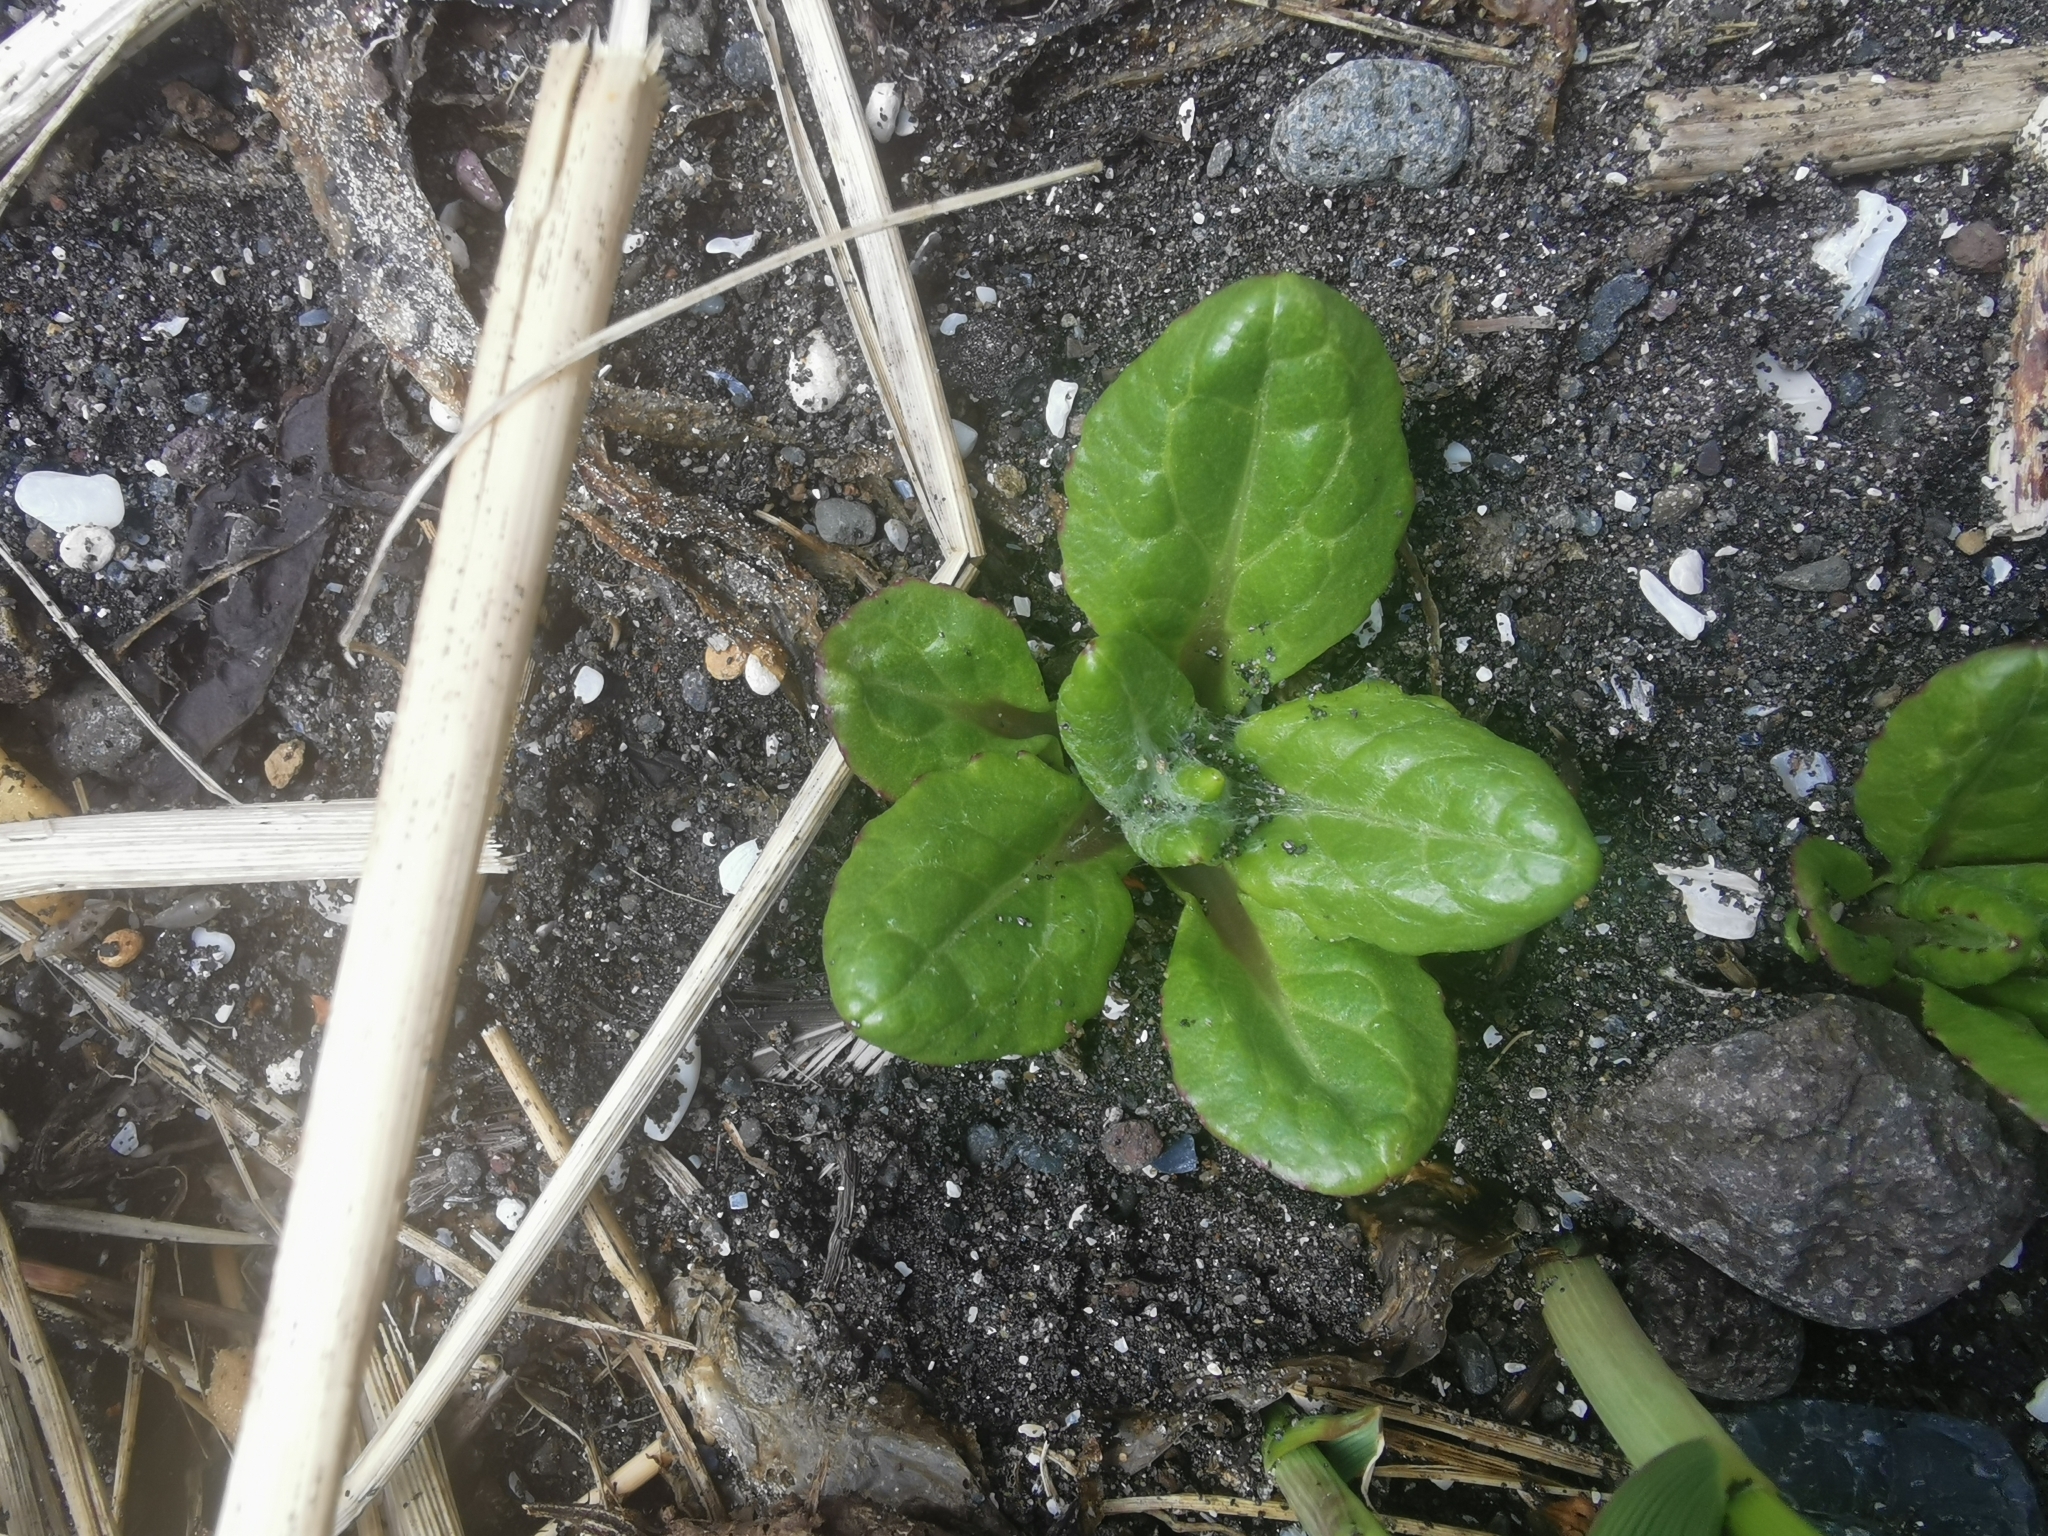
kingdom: Plantae
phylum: Tracheophyta
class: Magnoliopsida
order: Asterales
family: Asteraceae
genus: Jacobaea
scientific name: Jacobaea pseudoarnica
